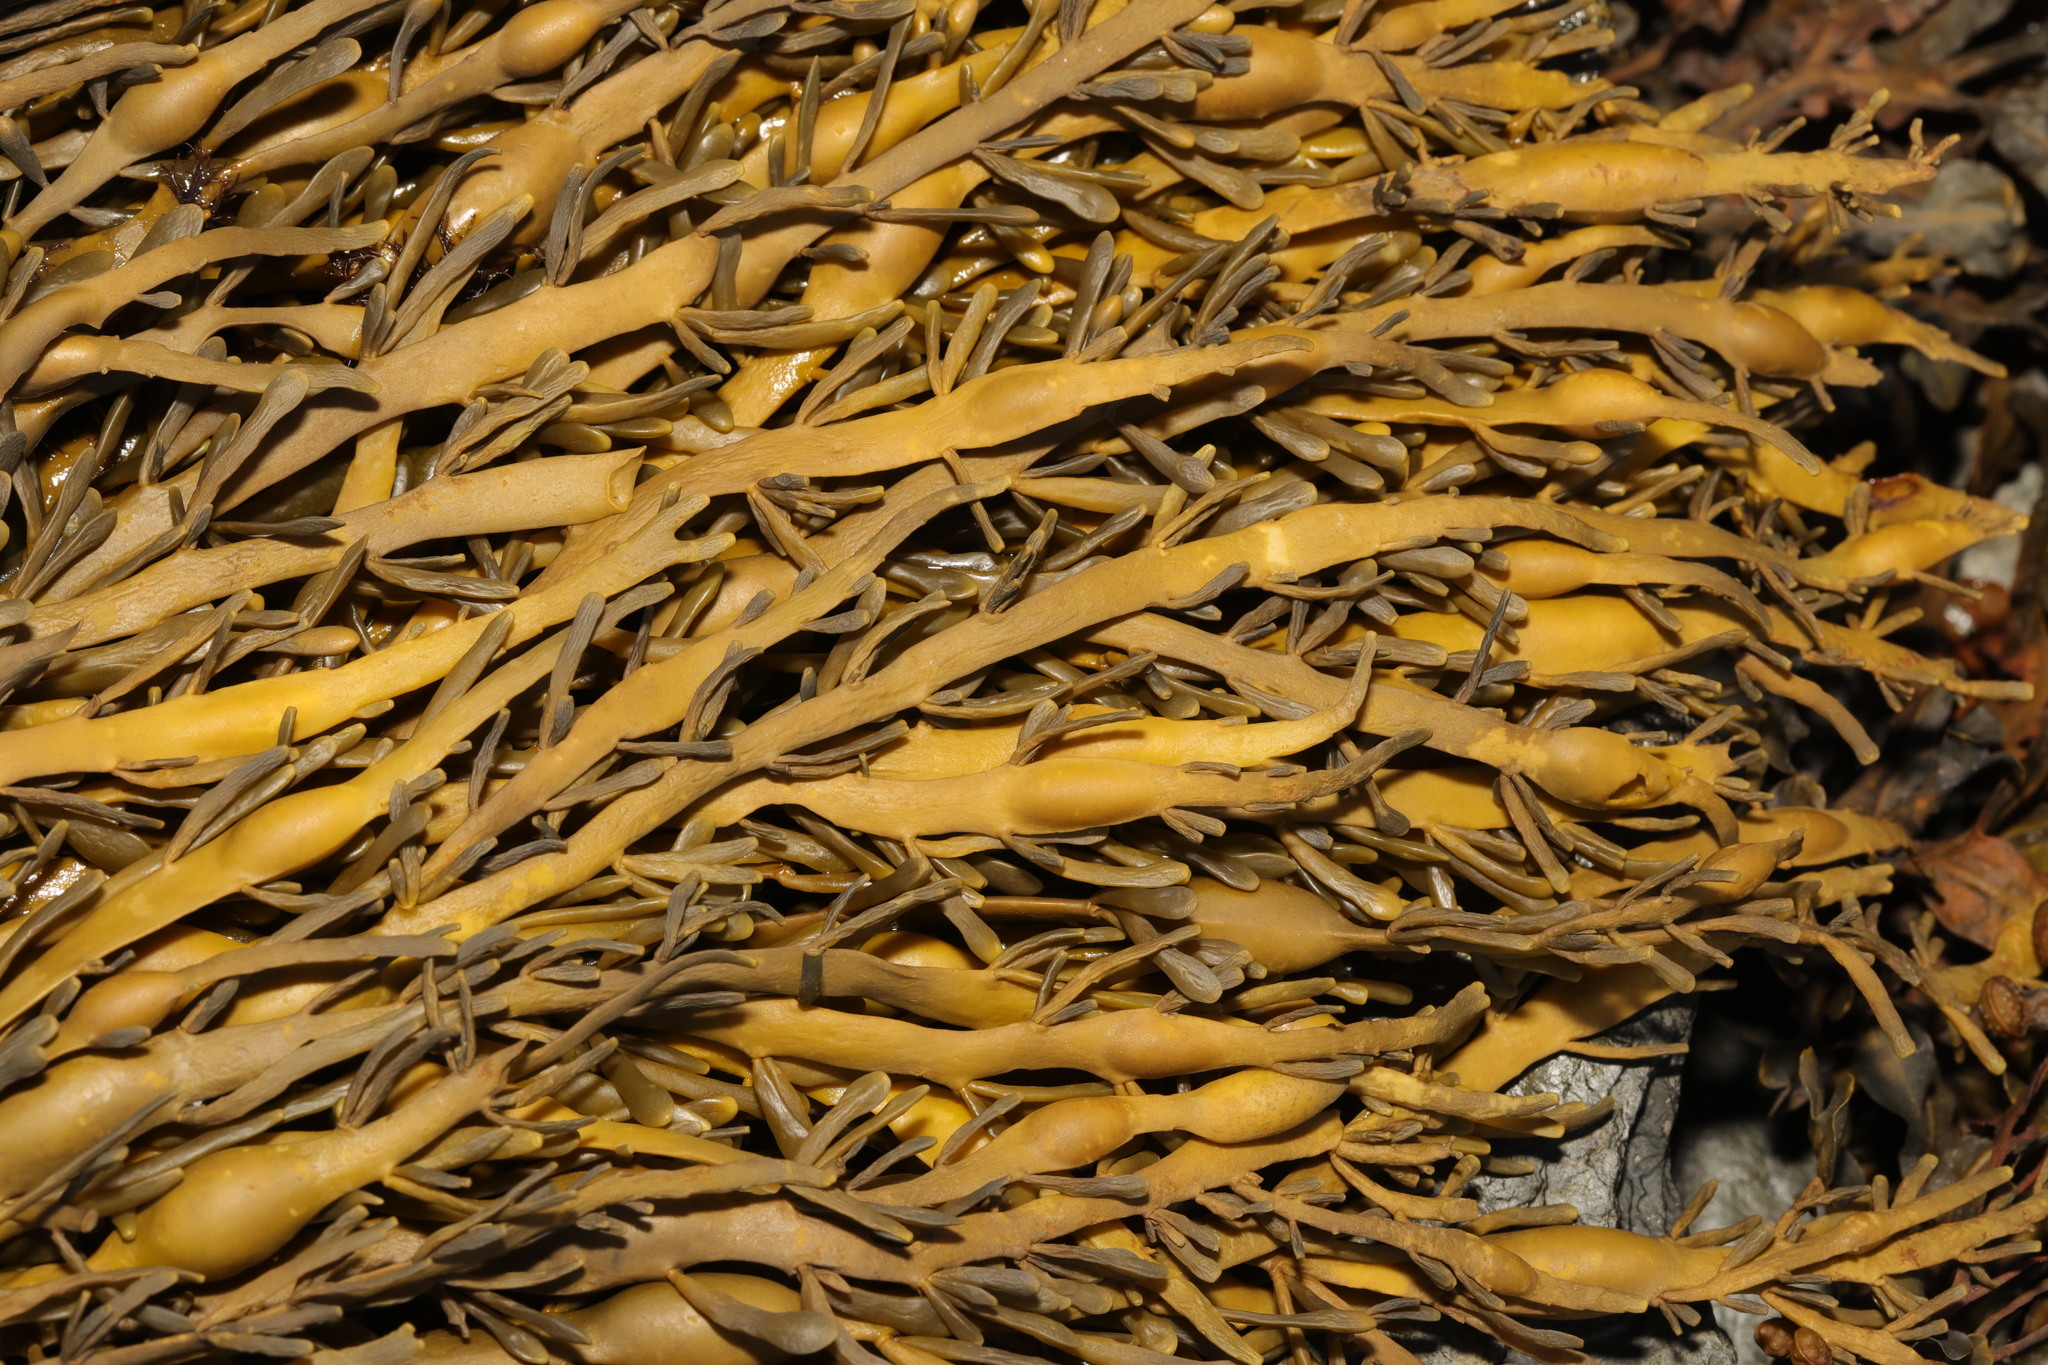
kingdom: Chromista
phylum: Ochrophyta
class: Phaeophyceae
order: Fucales
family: Fucaceae
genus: Ascophyllum
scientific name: Ascophyllum nodosum
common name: Knotted wrack
